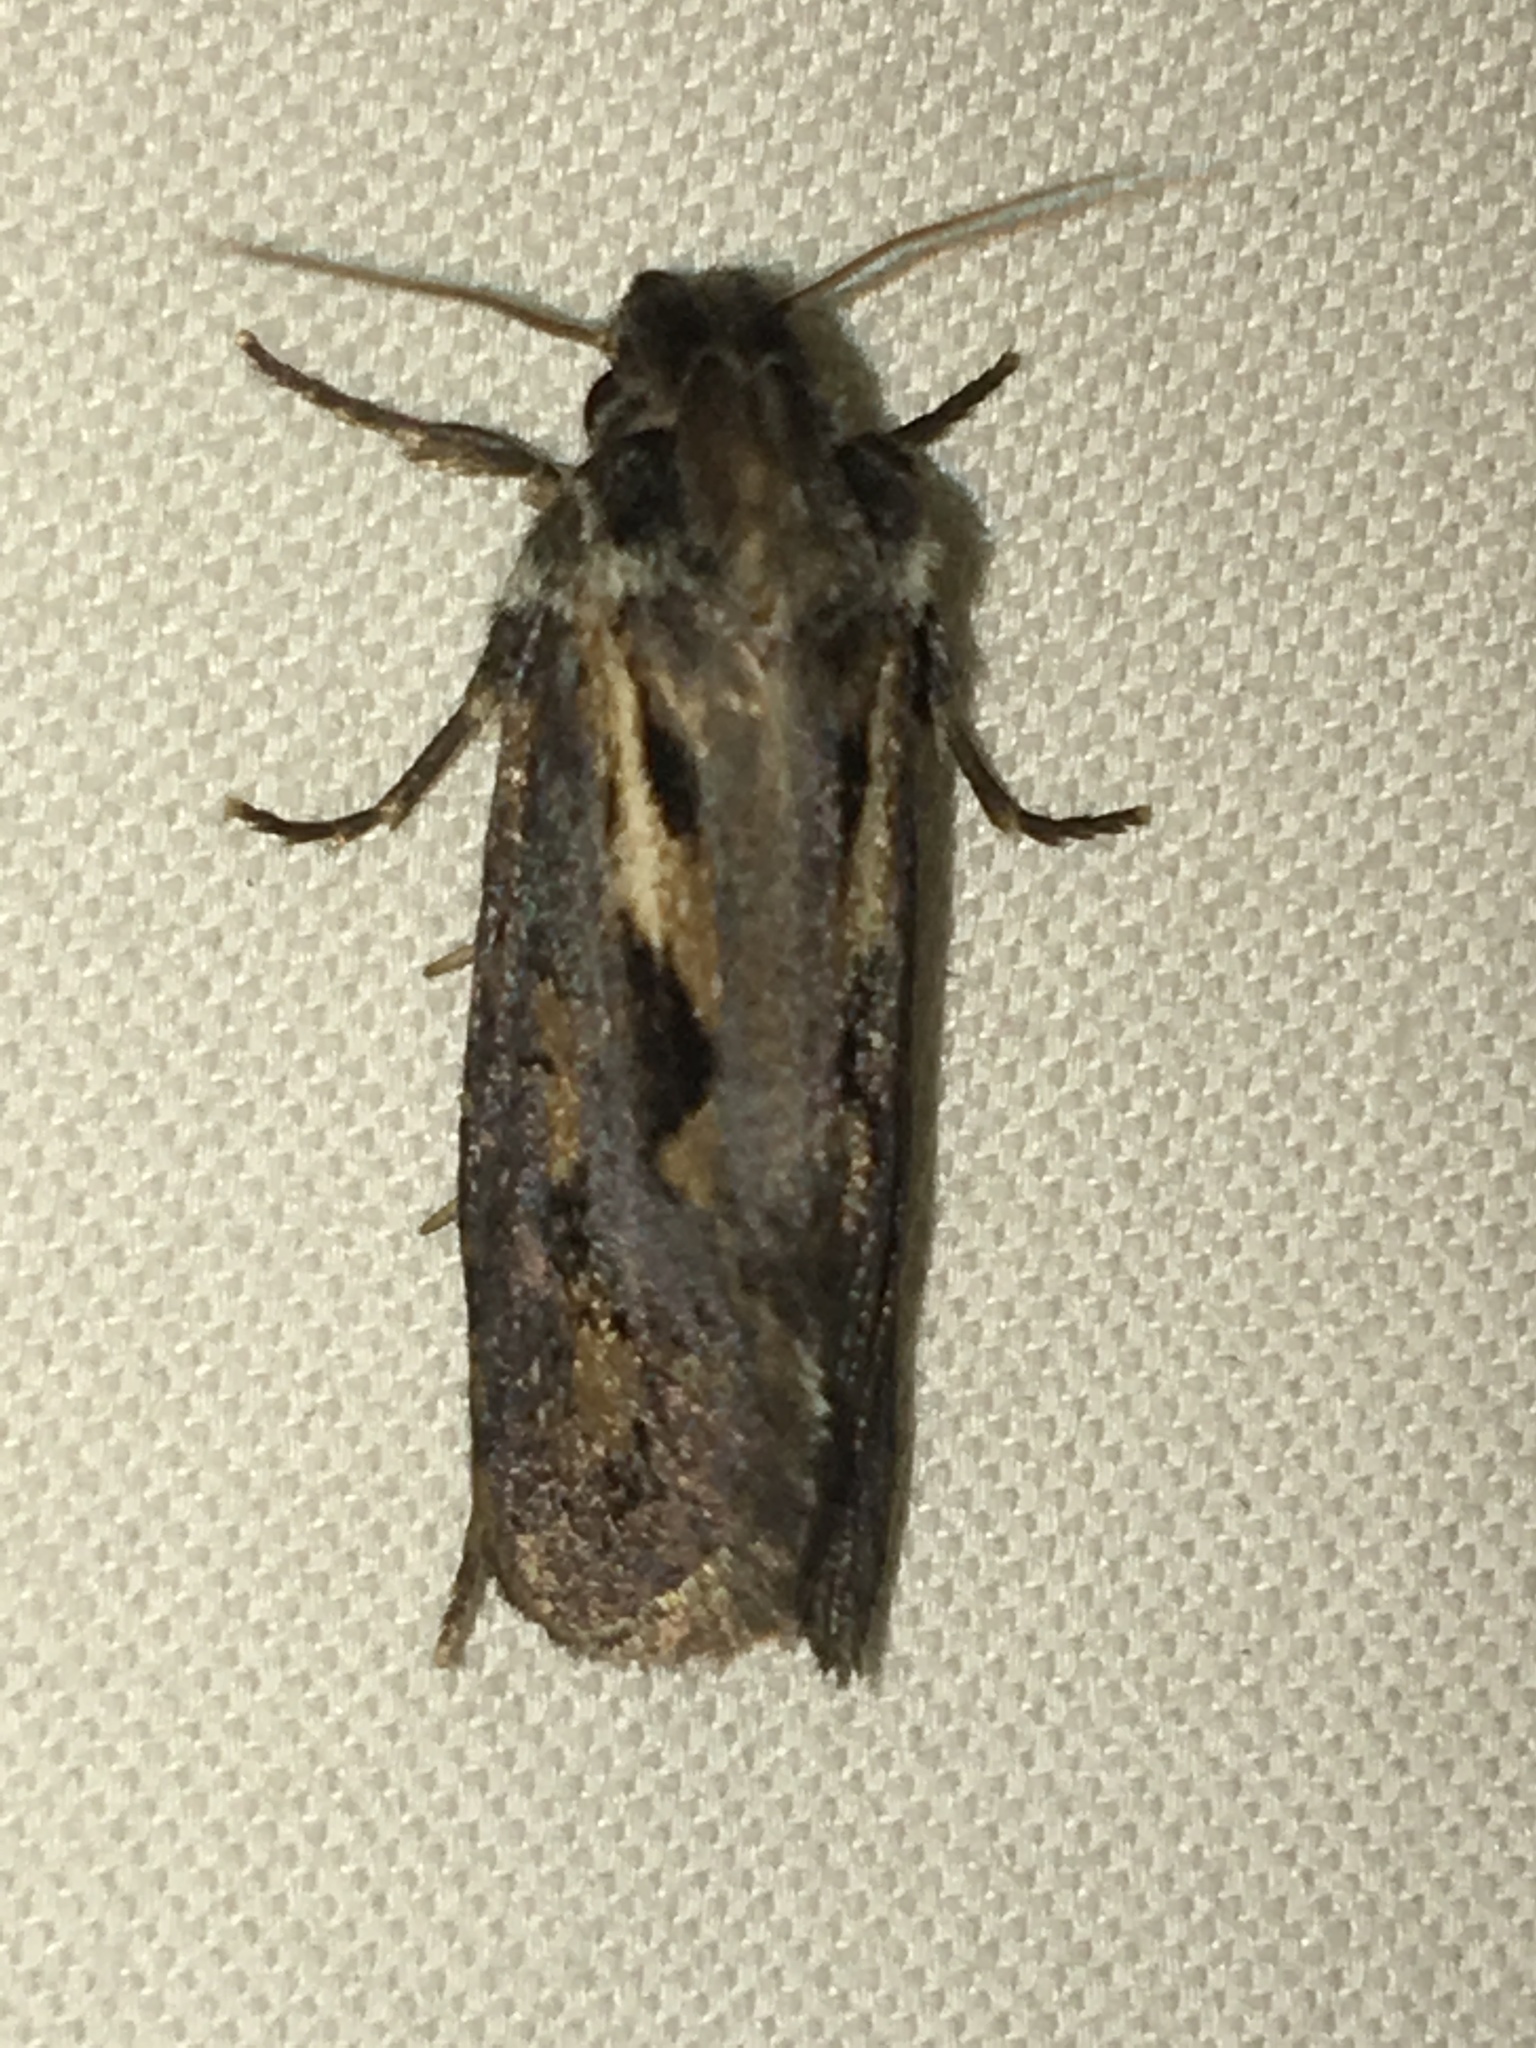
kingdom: Animalia
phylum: Arthropoda
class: Insecta
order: Lepidoptera
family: Tineidae
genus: Acrolophus
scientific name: Acrolophus popeanella
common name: Clemens' grass tubeworm moth
